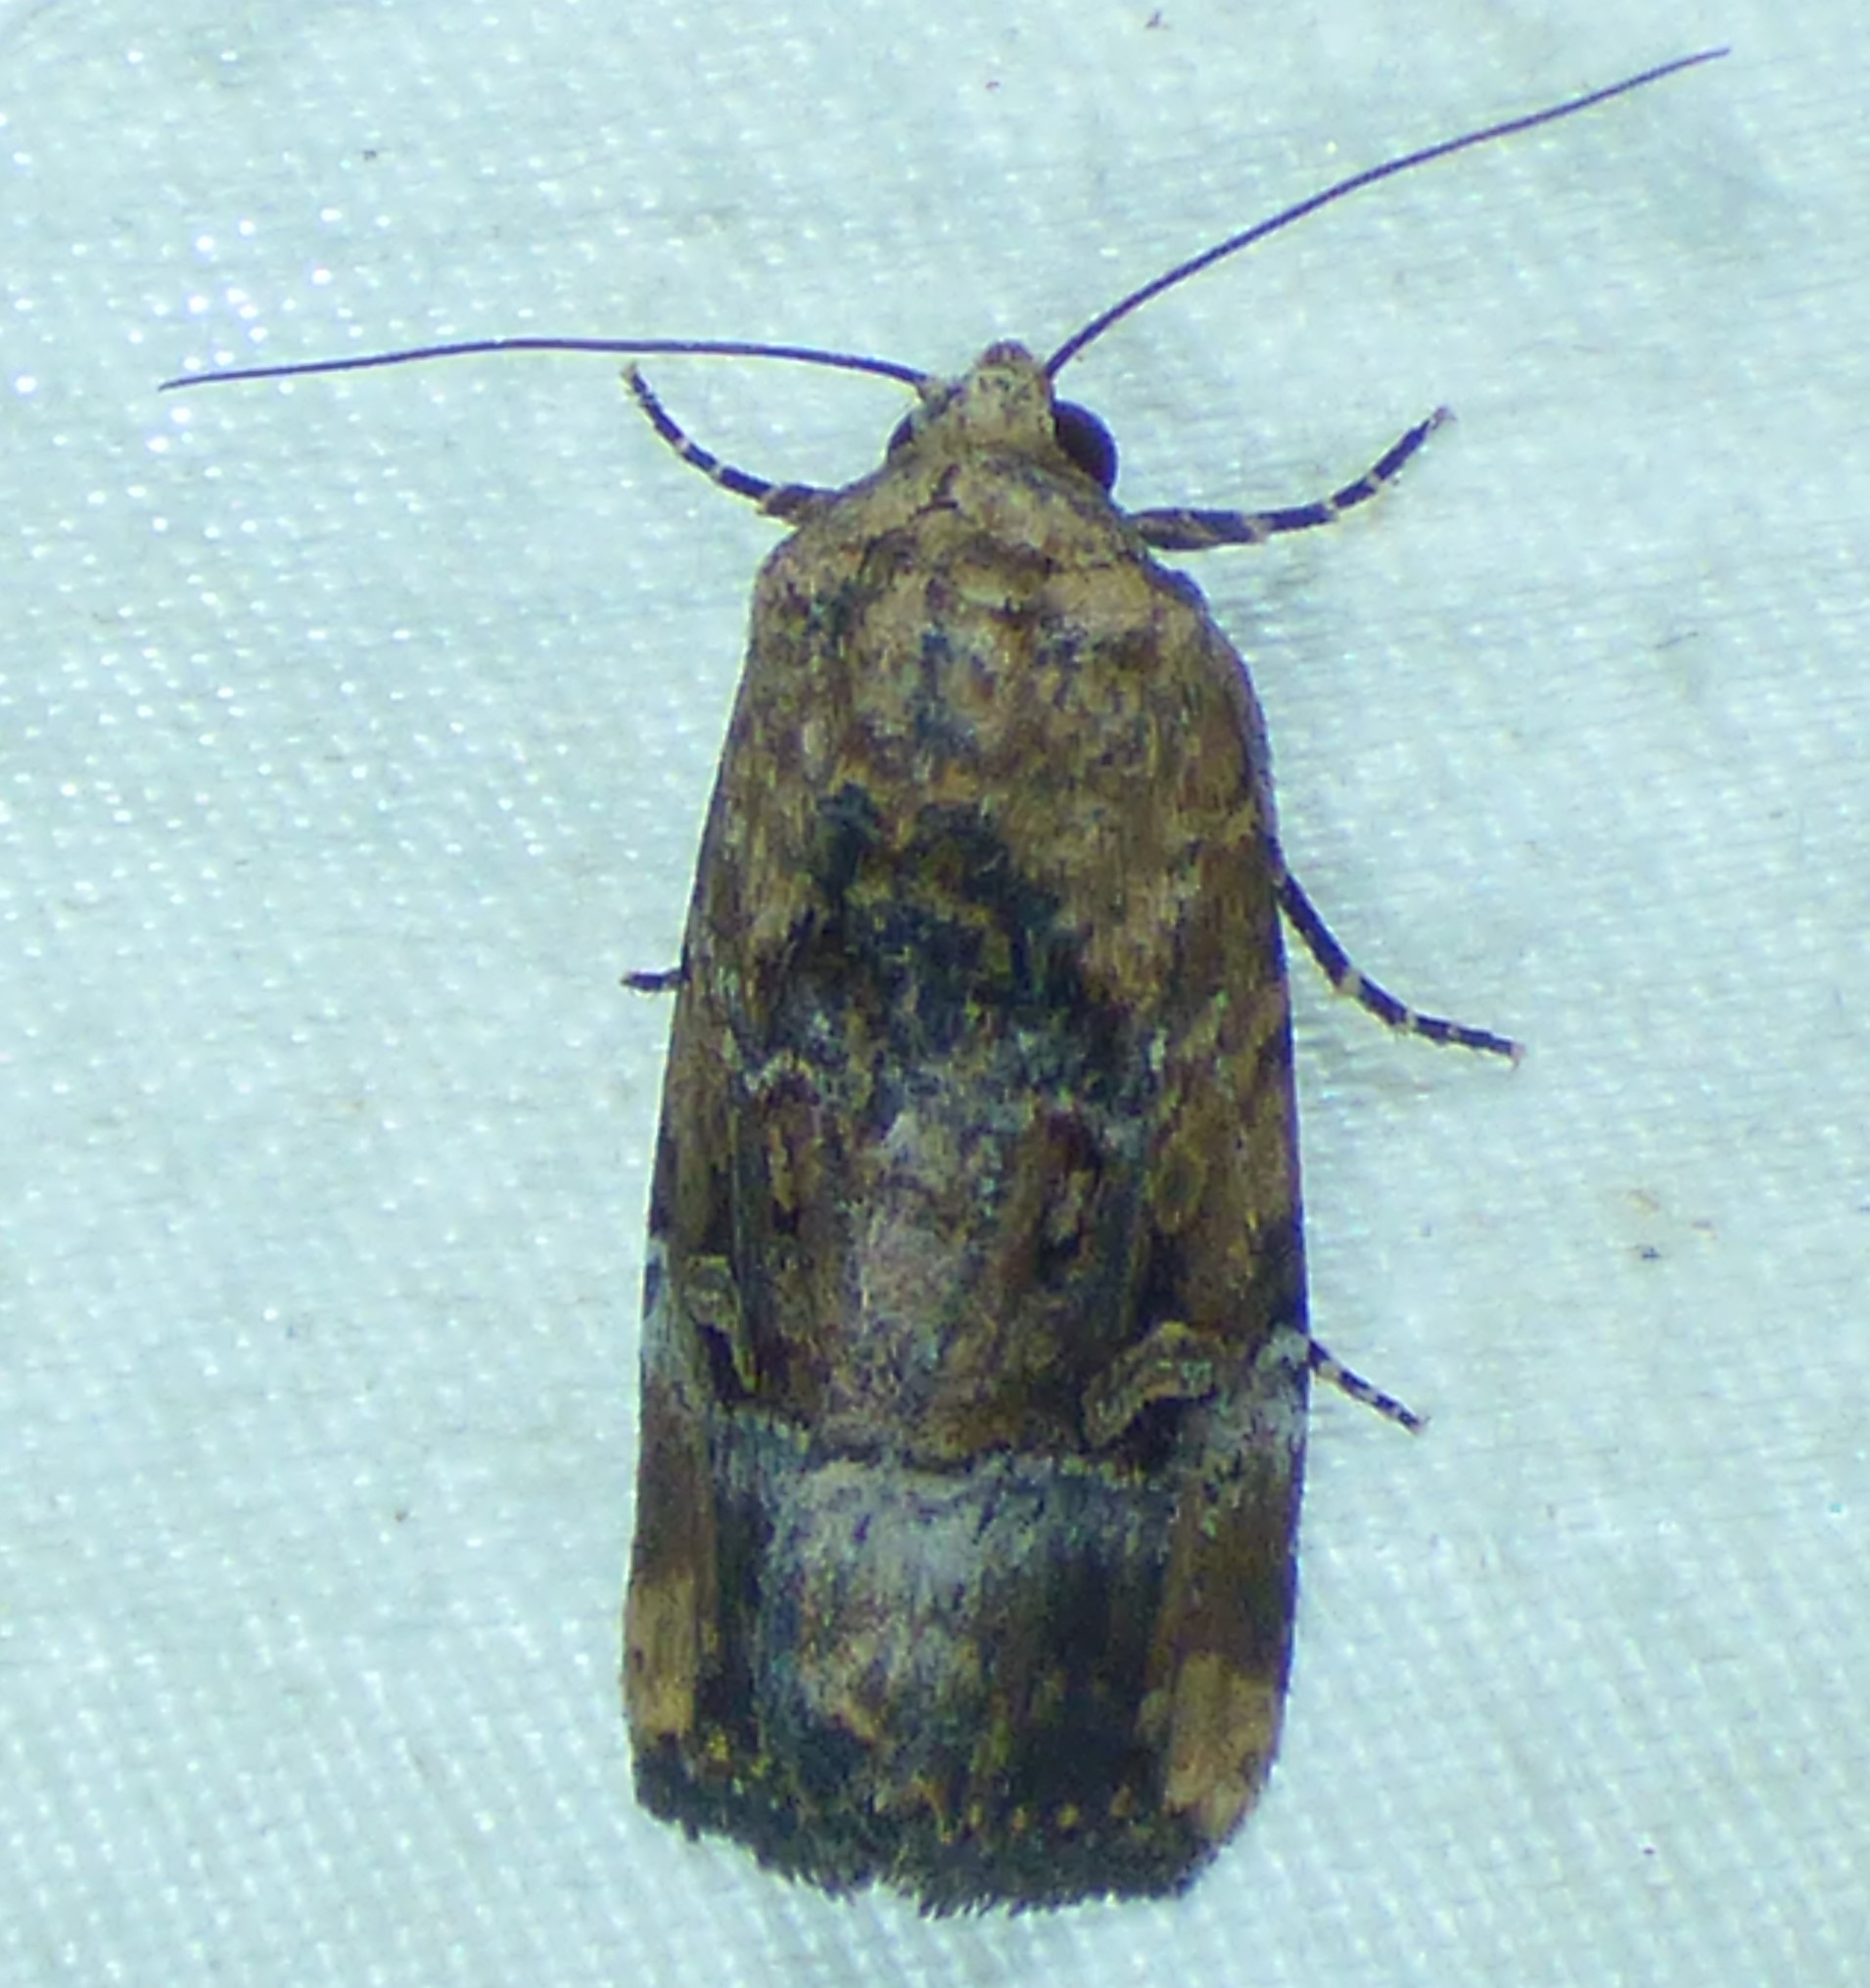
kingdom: Animalia
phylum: Arthropoda
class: Insecta
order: Lepidoptera
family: Noctuidae
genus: Elaphria
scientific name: Elaphria chalcedonia
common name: Chalcedony midget
